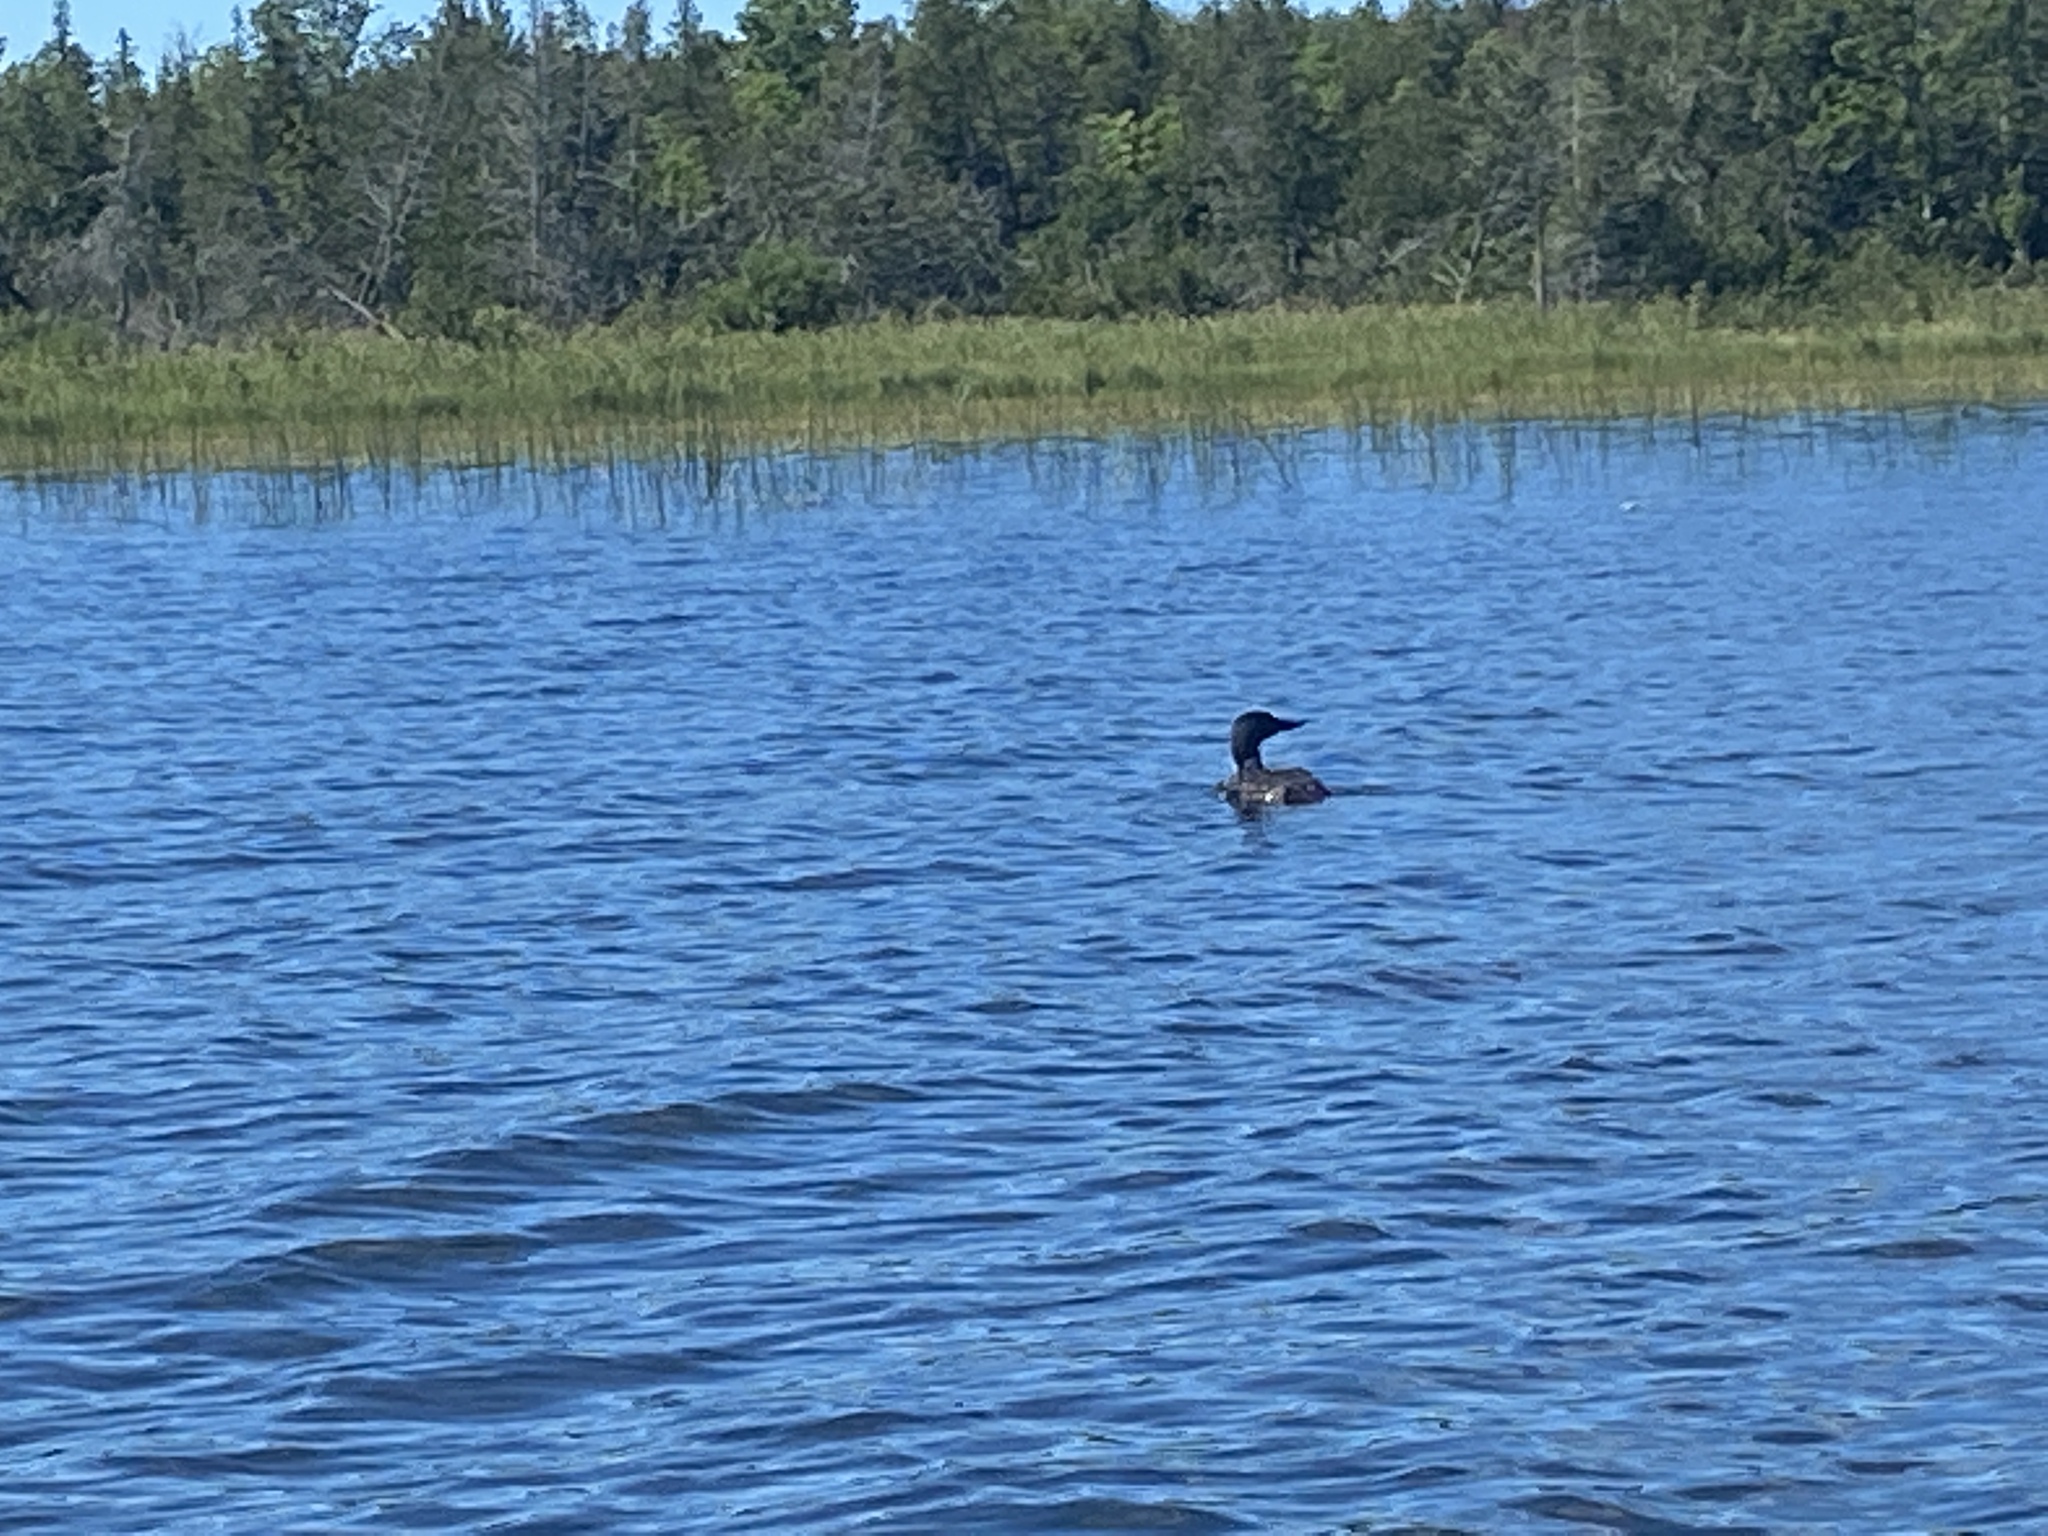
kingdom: Animalia
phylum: Chordata
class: Aves
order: Gaviiformes
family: Gaviidae
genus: Gavia
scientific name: Gavia immer
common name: Common loon
